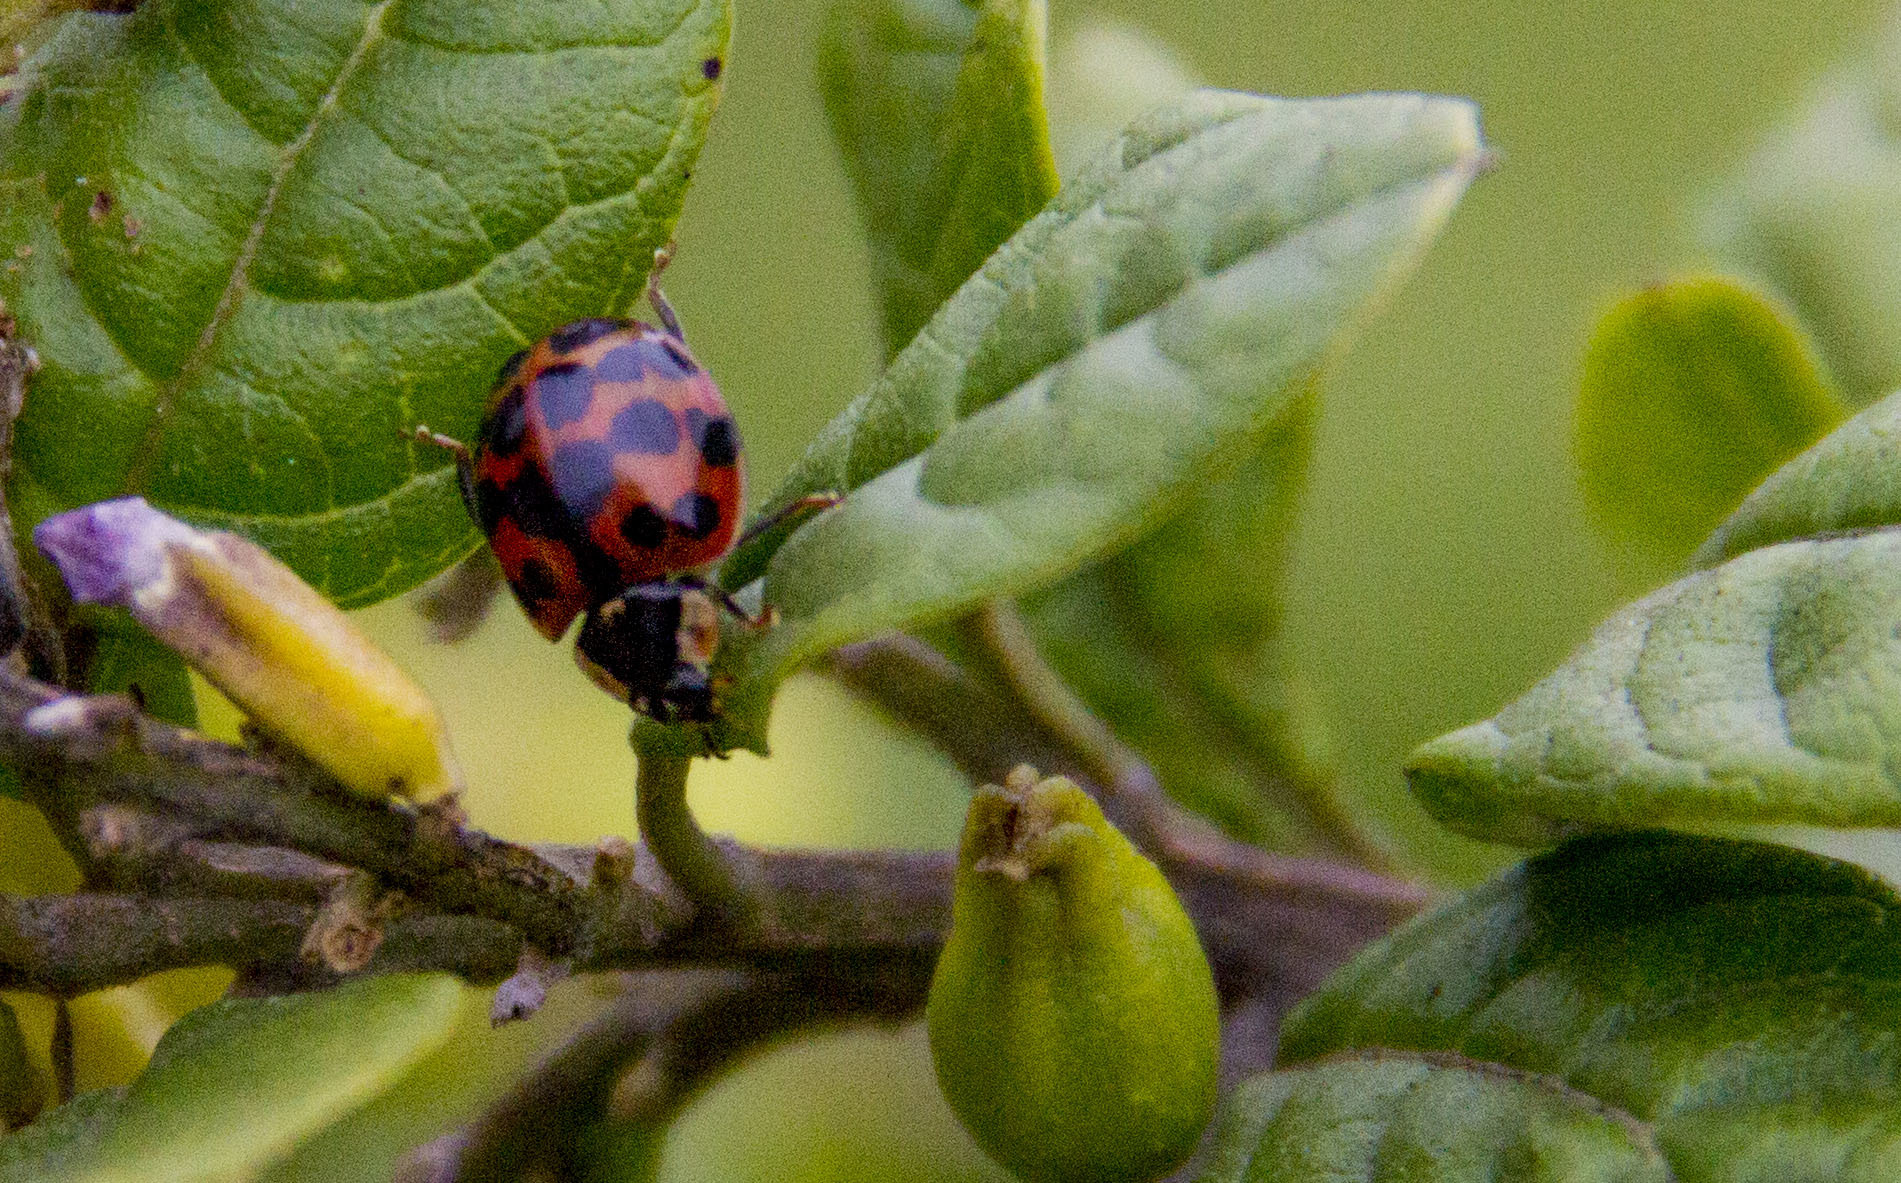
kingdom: Animalia
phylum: Arthropoda
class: Insecta
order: Coleoptera
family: Coccinellidae
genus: Harmonia
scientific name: Harmonia axyridis
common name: Harlequin ladybird
